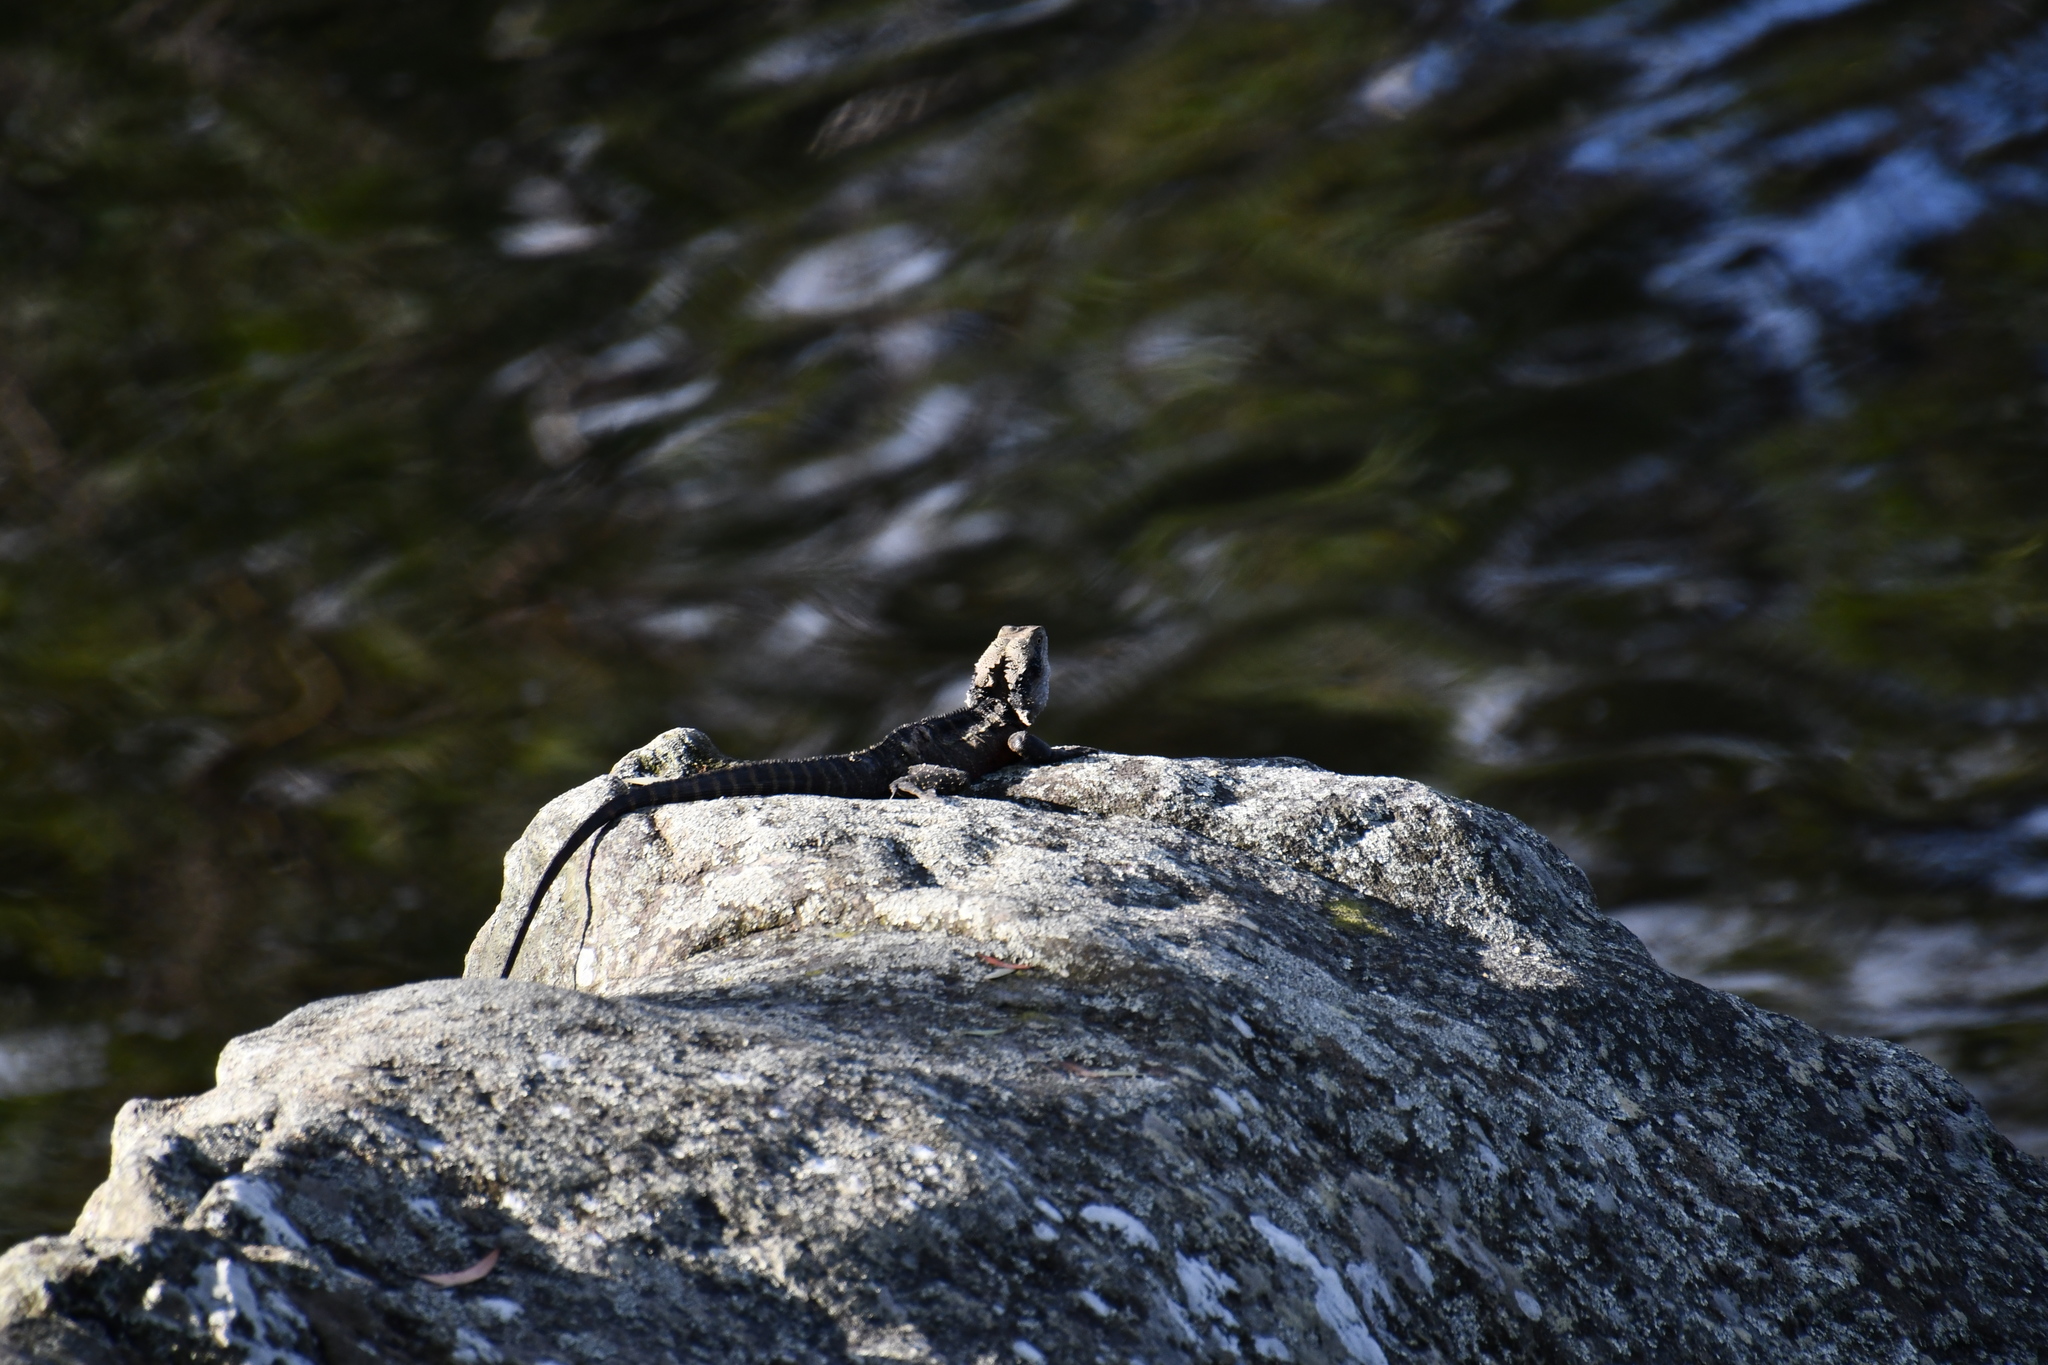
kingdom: Animalia
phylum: Chordata
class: Squamata
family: Agamidae
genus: Intellagama
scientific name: Intellagama lesueurii
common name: Eastern water dragon
